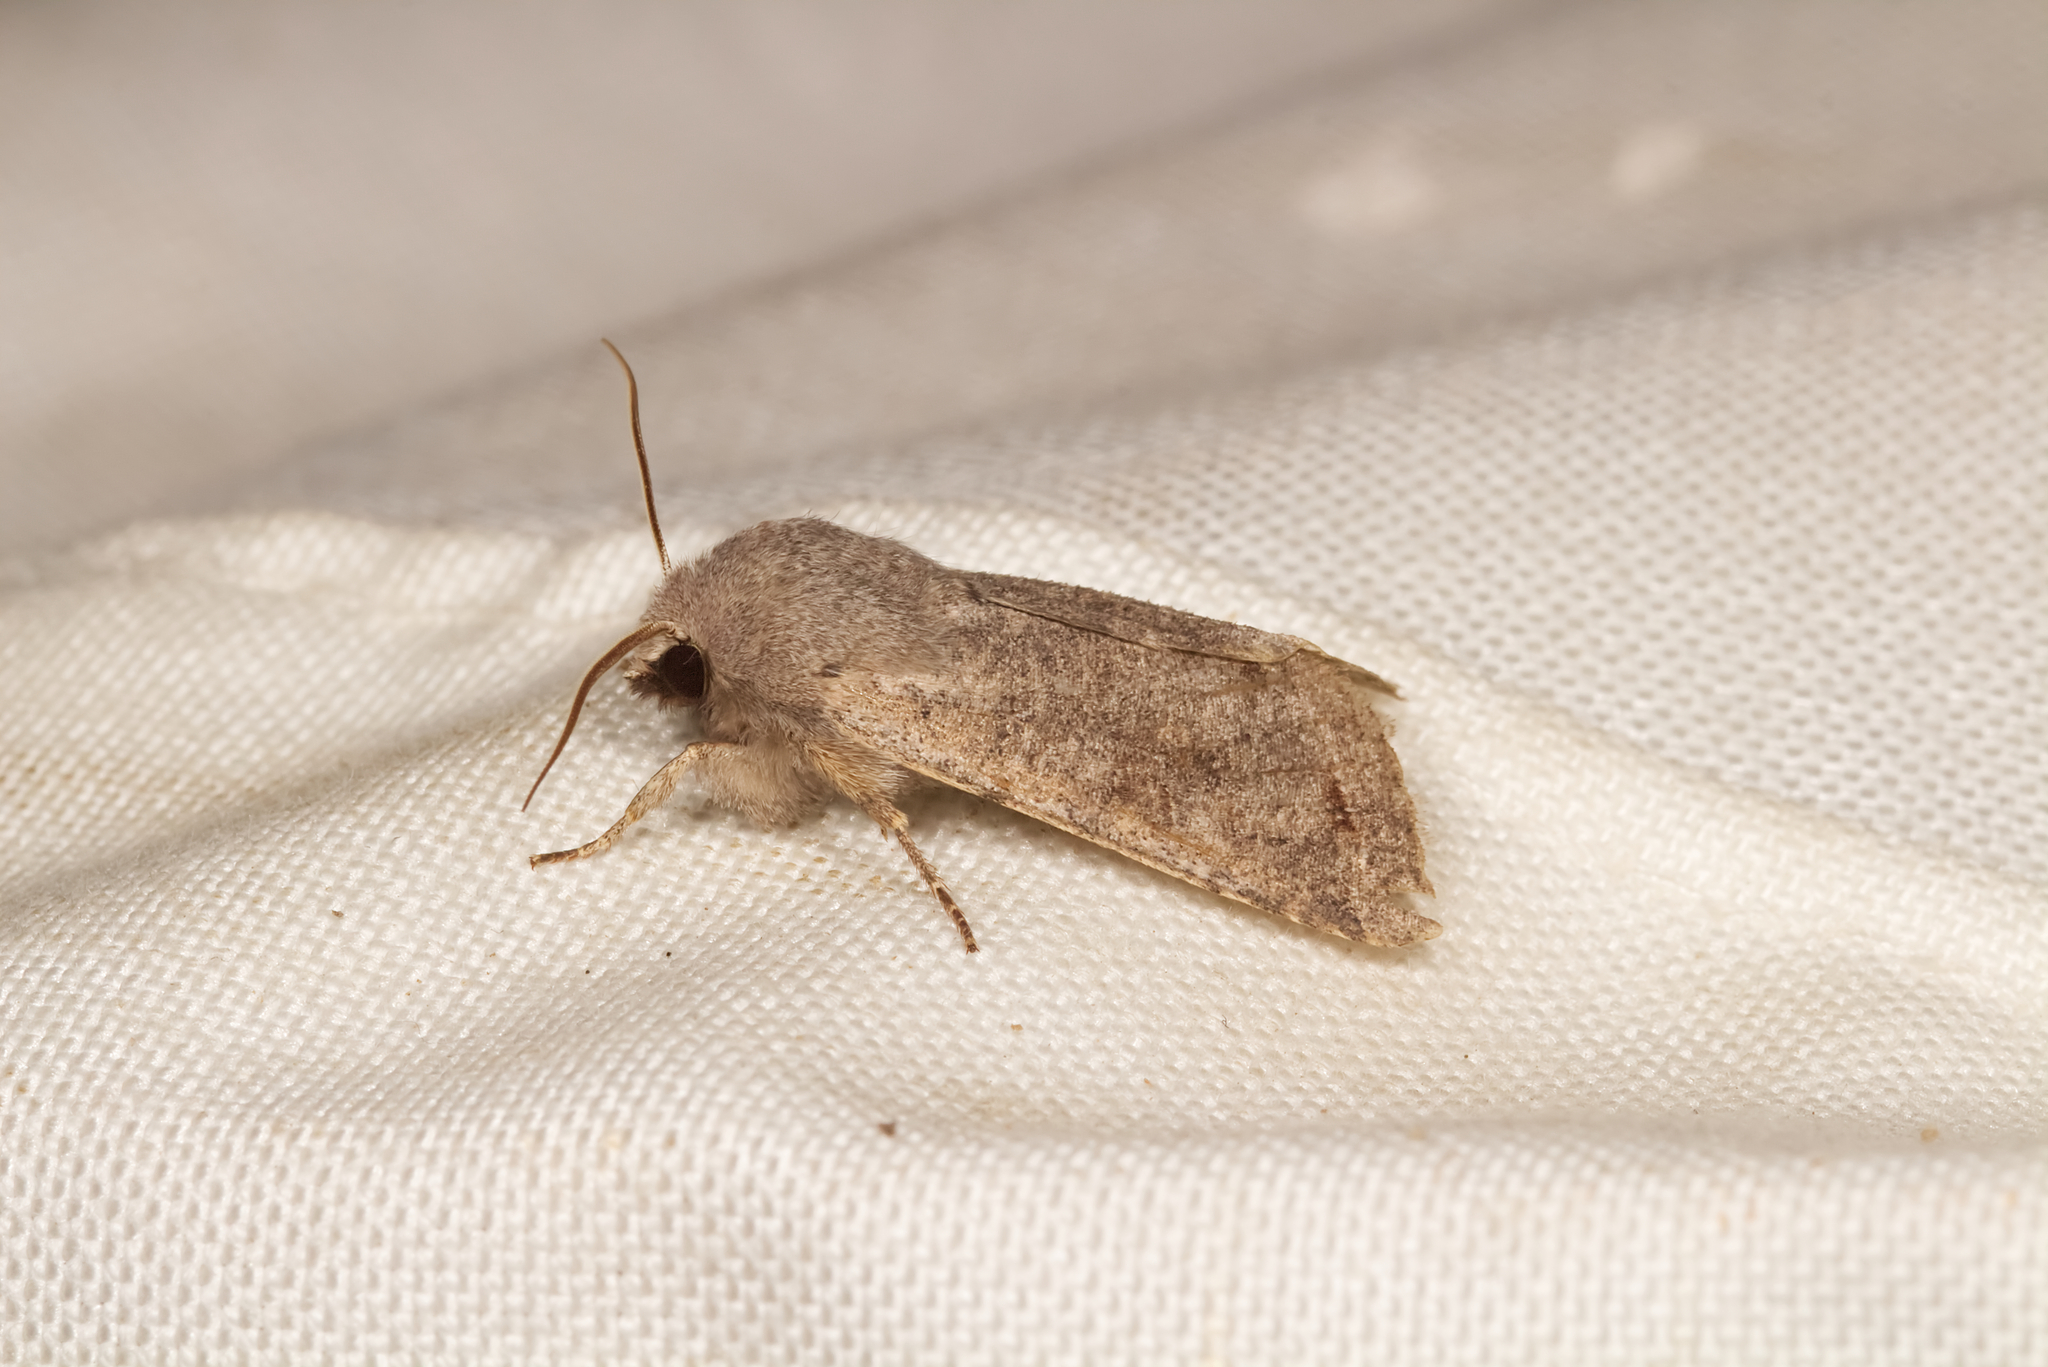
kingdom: Animalia
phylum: Arthropoda
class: Insecta
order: Lepidoptera
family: Noctuidae
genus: Orthosia
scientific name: Orthosia incerta
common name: Clouded drab
